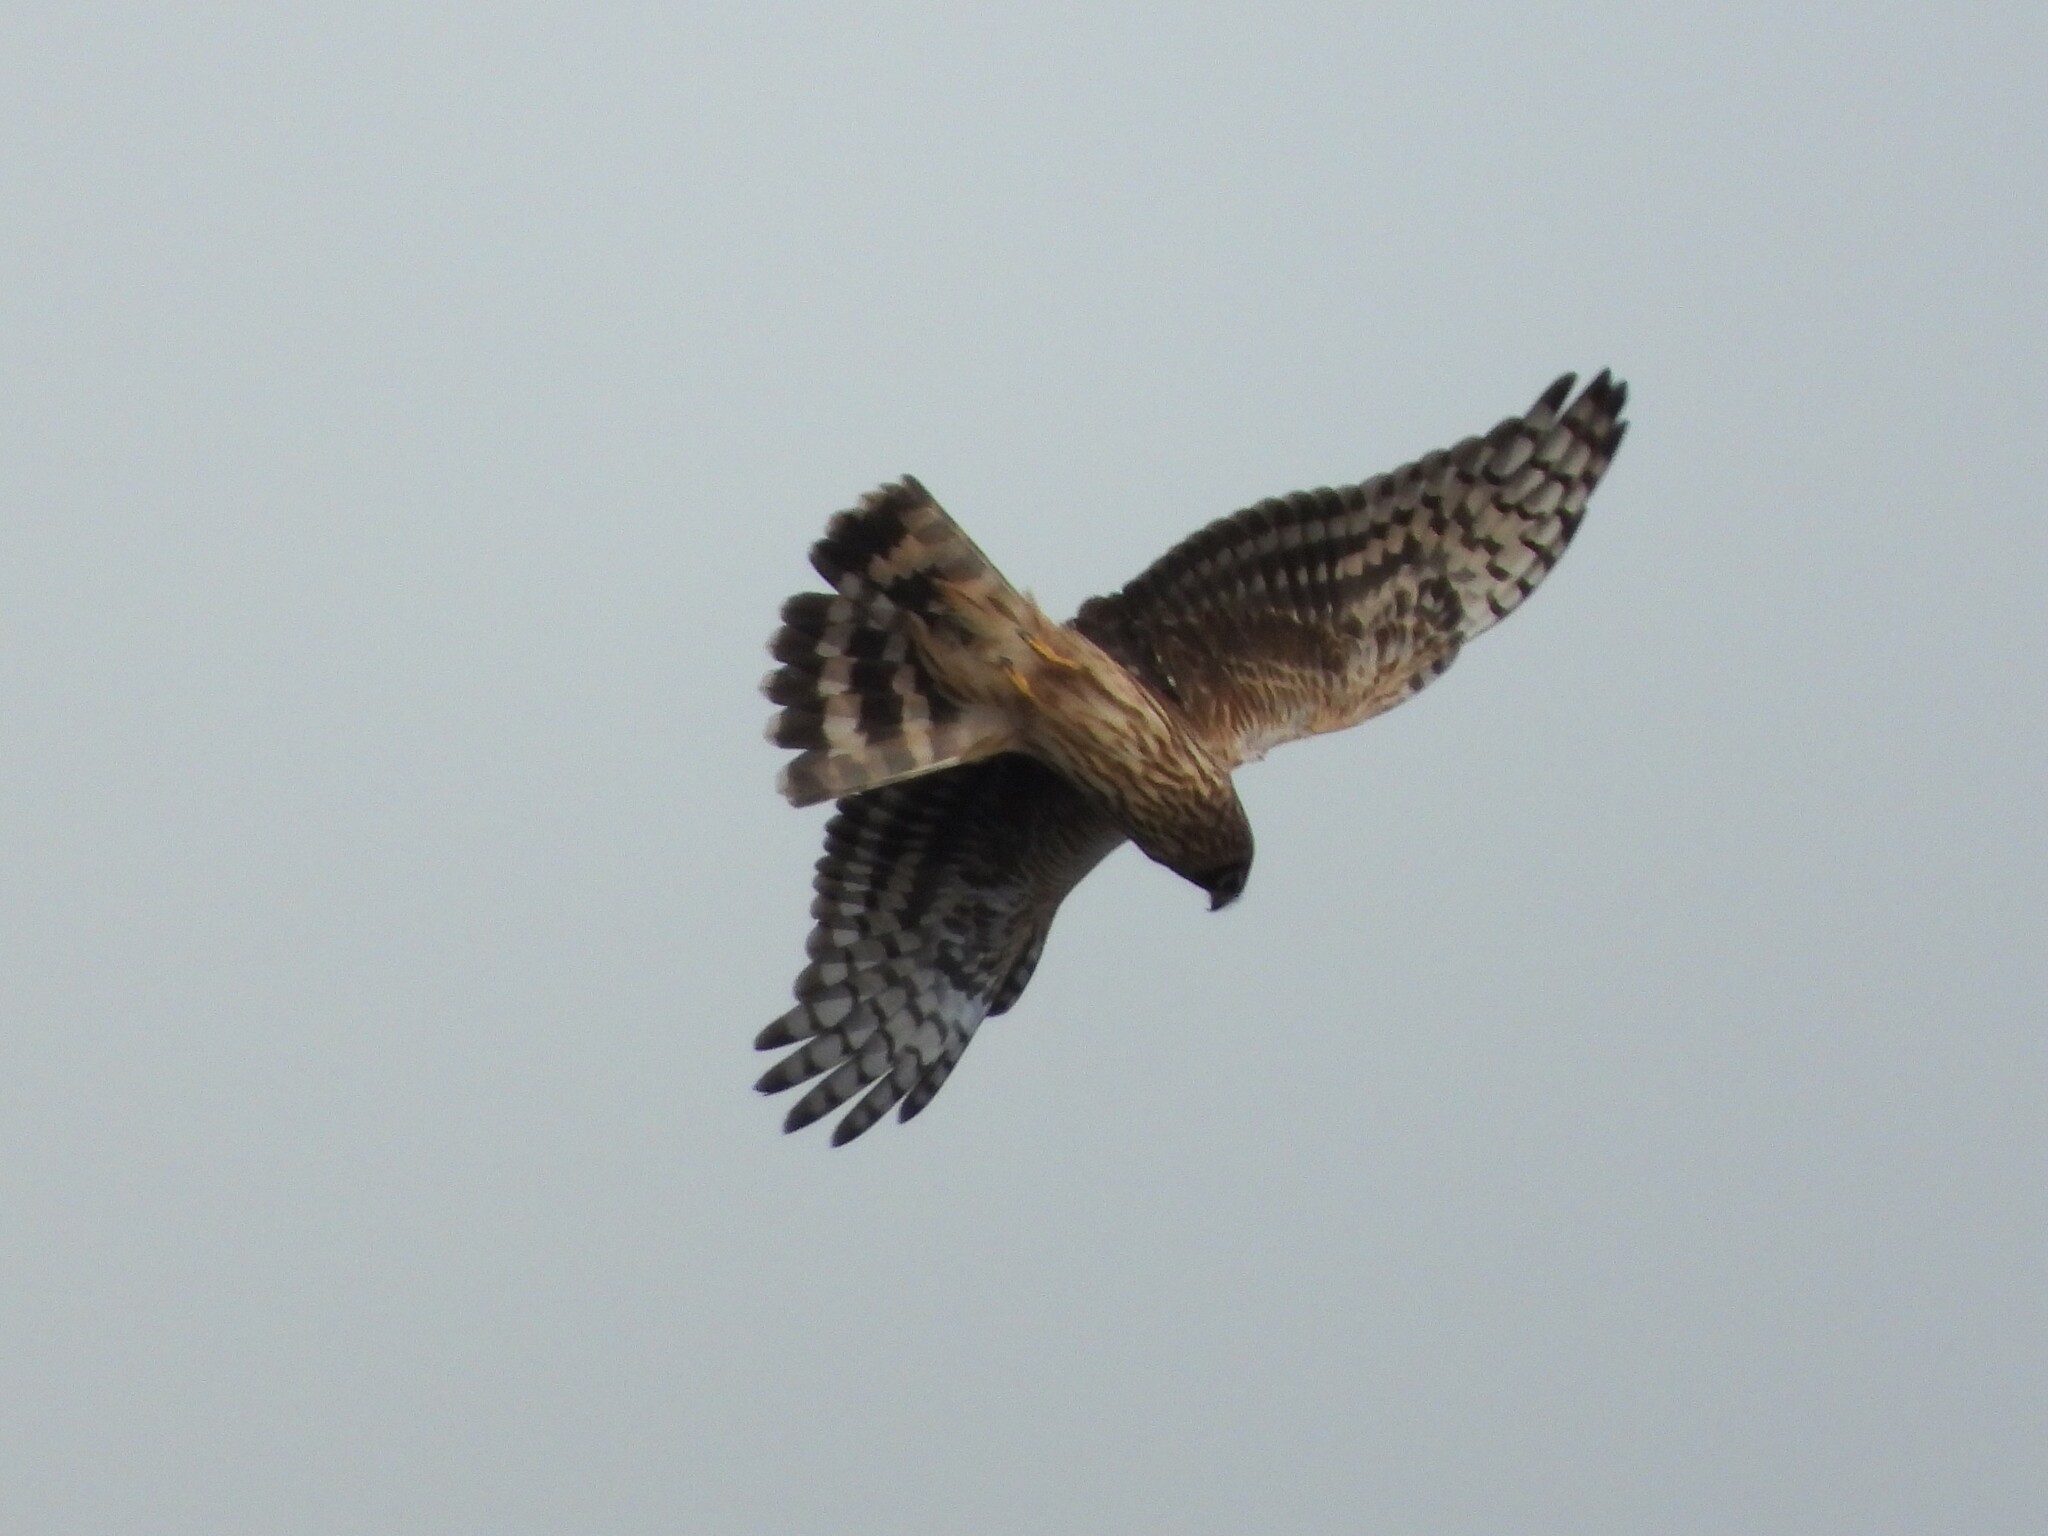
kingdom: Animalia
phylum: Chordata
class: Aves
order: Accipitriformes
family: Accipitridae
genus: Circus
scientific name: Circus cyaneus
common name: Hen harrier
